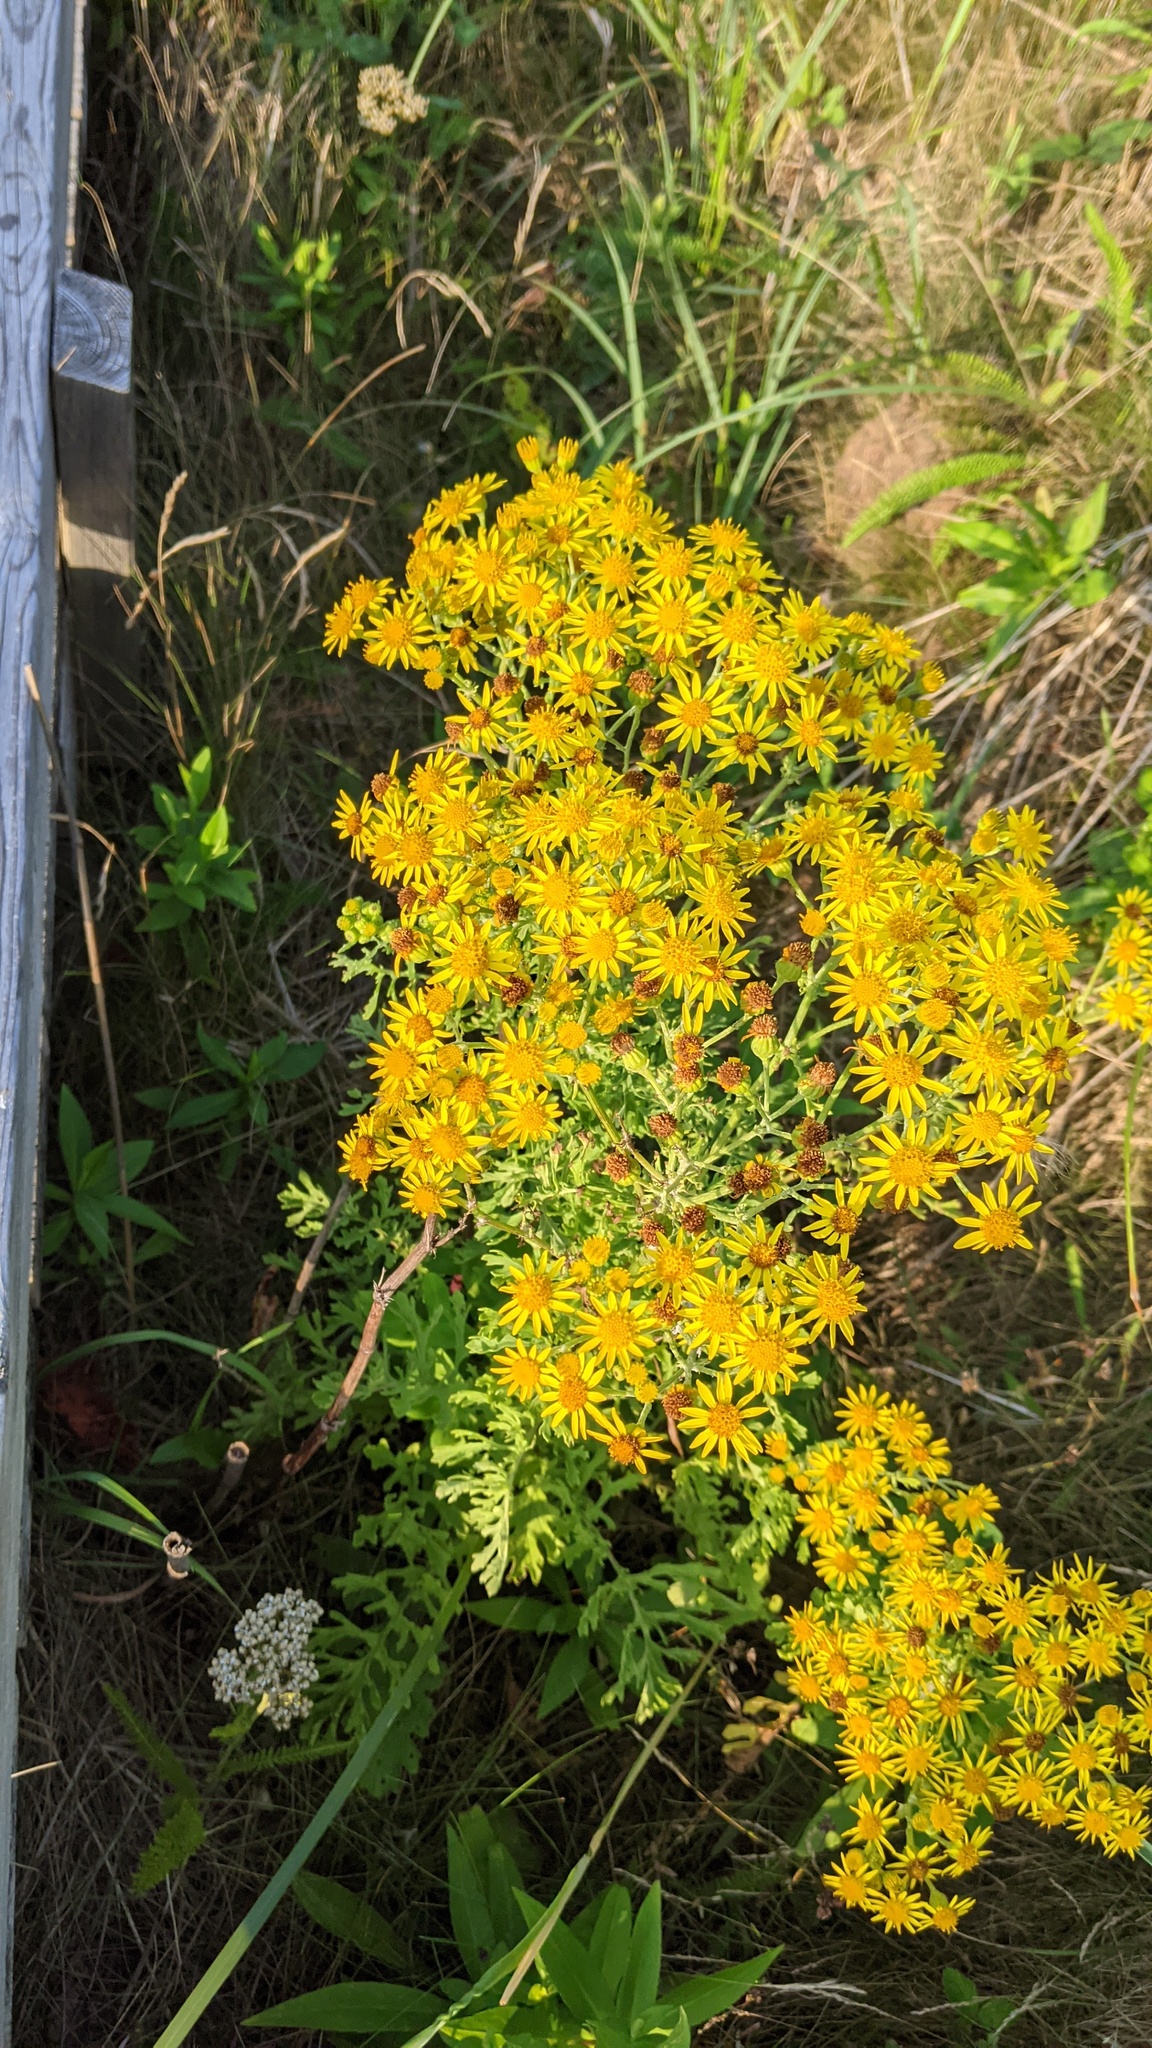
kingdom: Plantae
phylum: Tracheophyta
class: Magnoliopsida
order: Asterales
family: Asteraceae
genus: Jacobaea
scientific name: Jacobaea vulgaris
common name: Stinking willie
